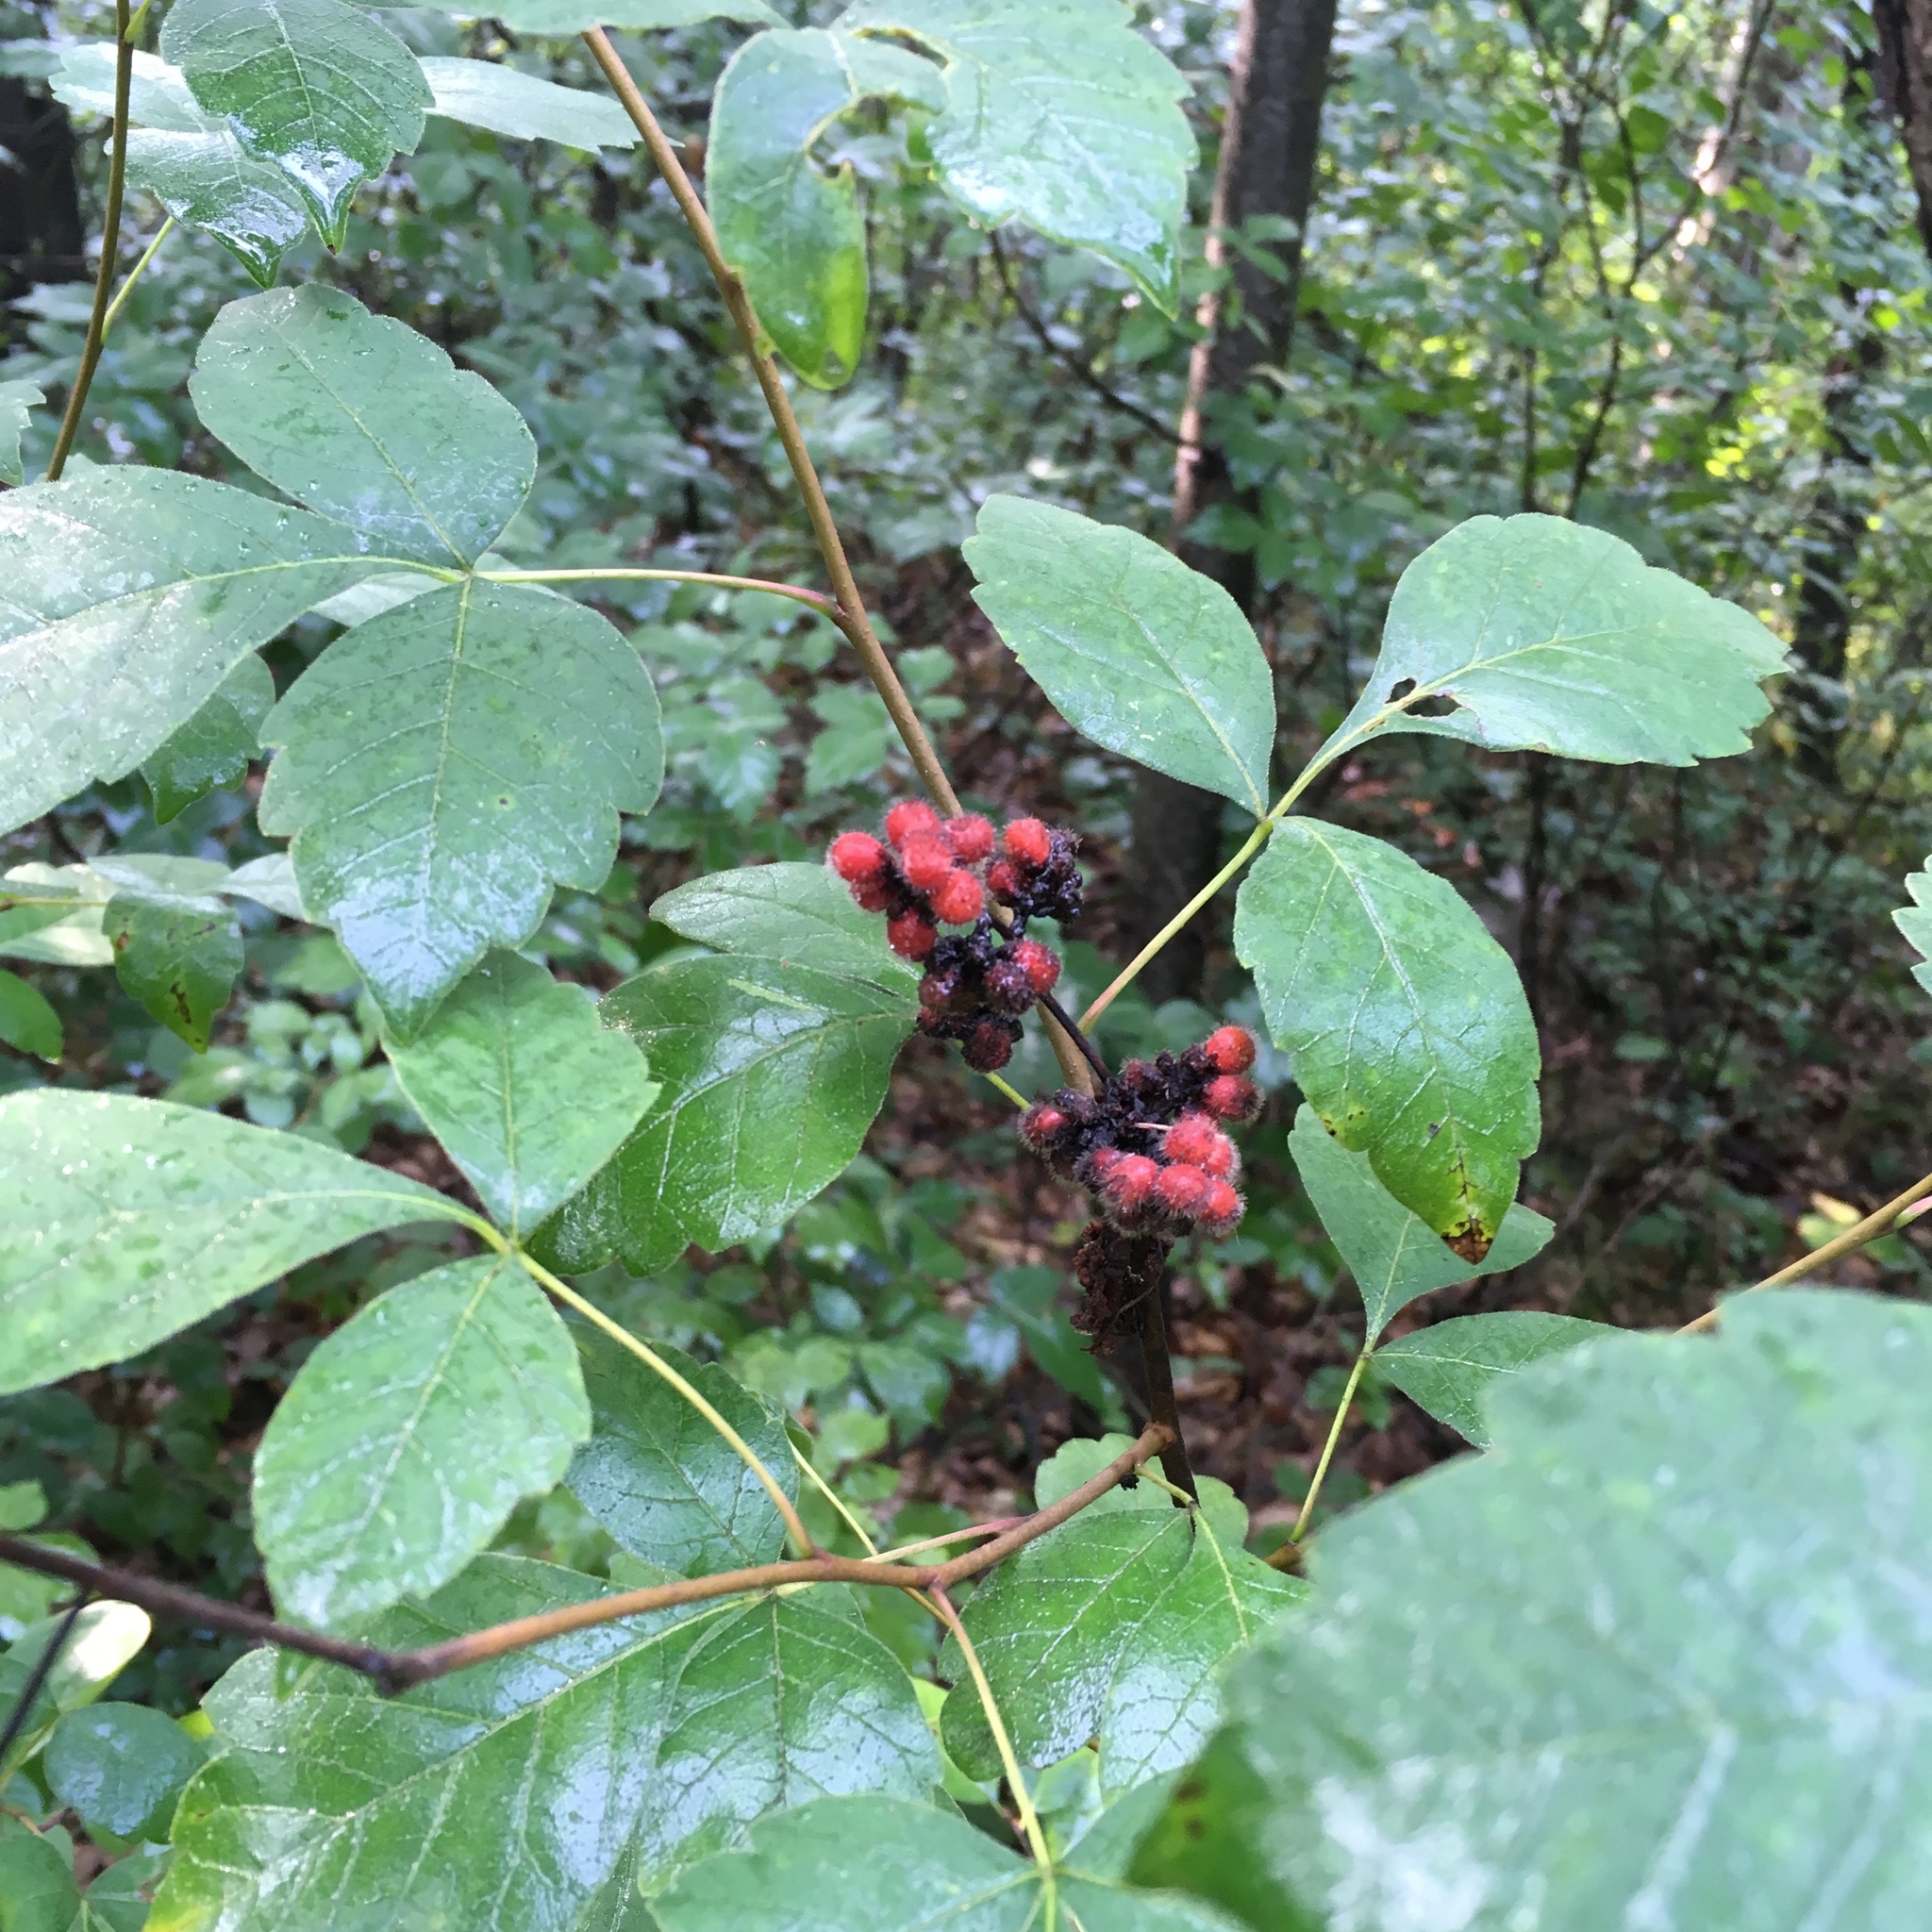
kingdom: Plantae
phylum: Tracheophyta
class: Magnoliopsida
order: Sapindales
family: Anacardiaceae
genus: Rhus
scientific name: Rhus aromatica
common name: Aromatic sumac
